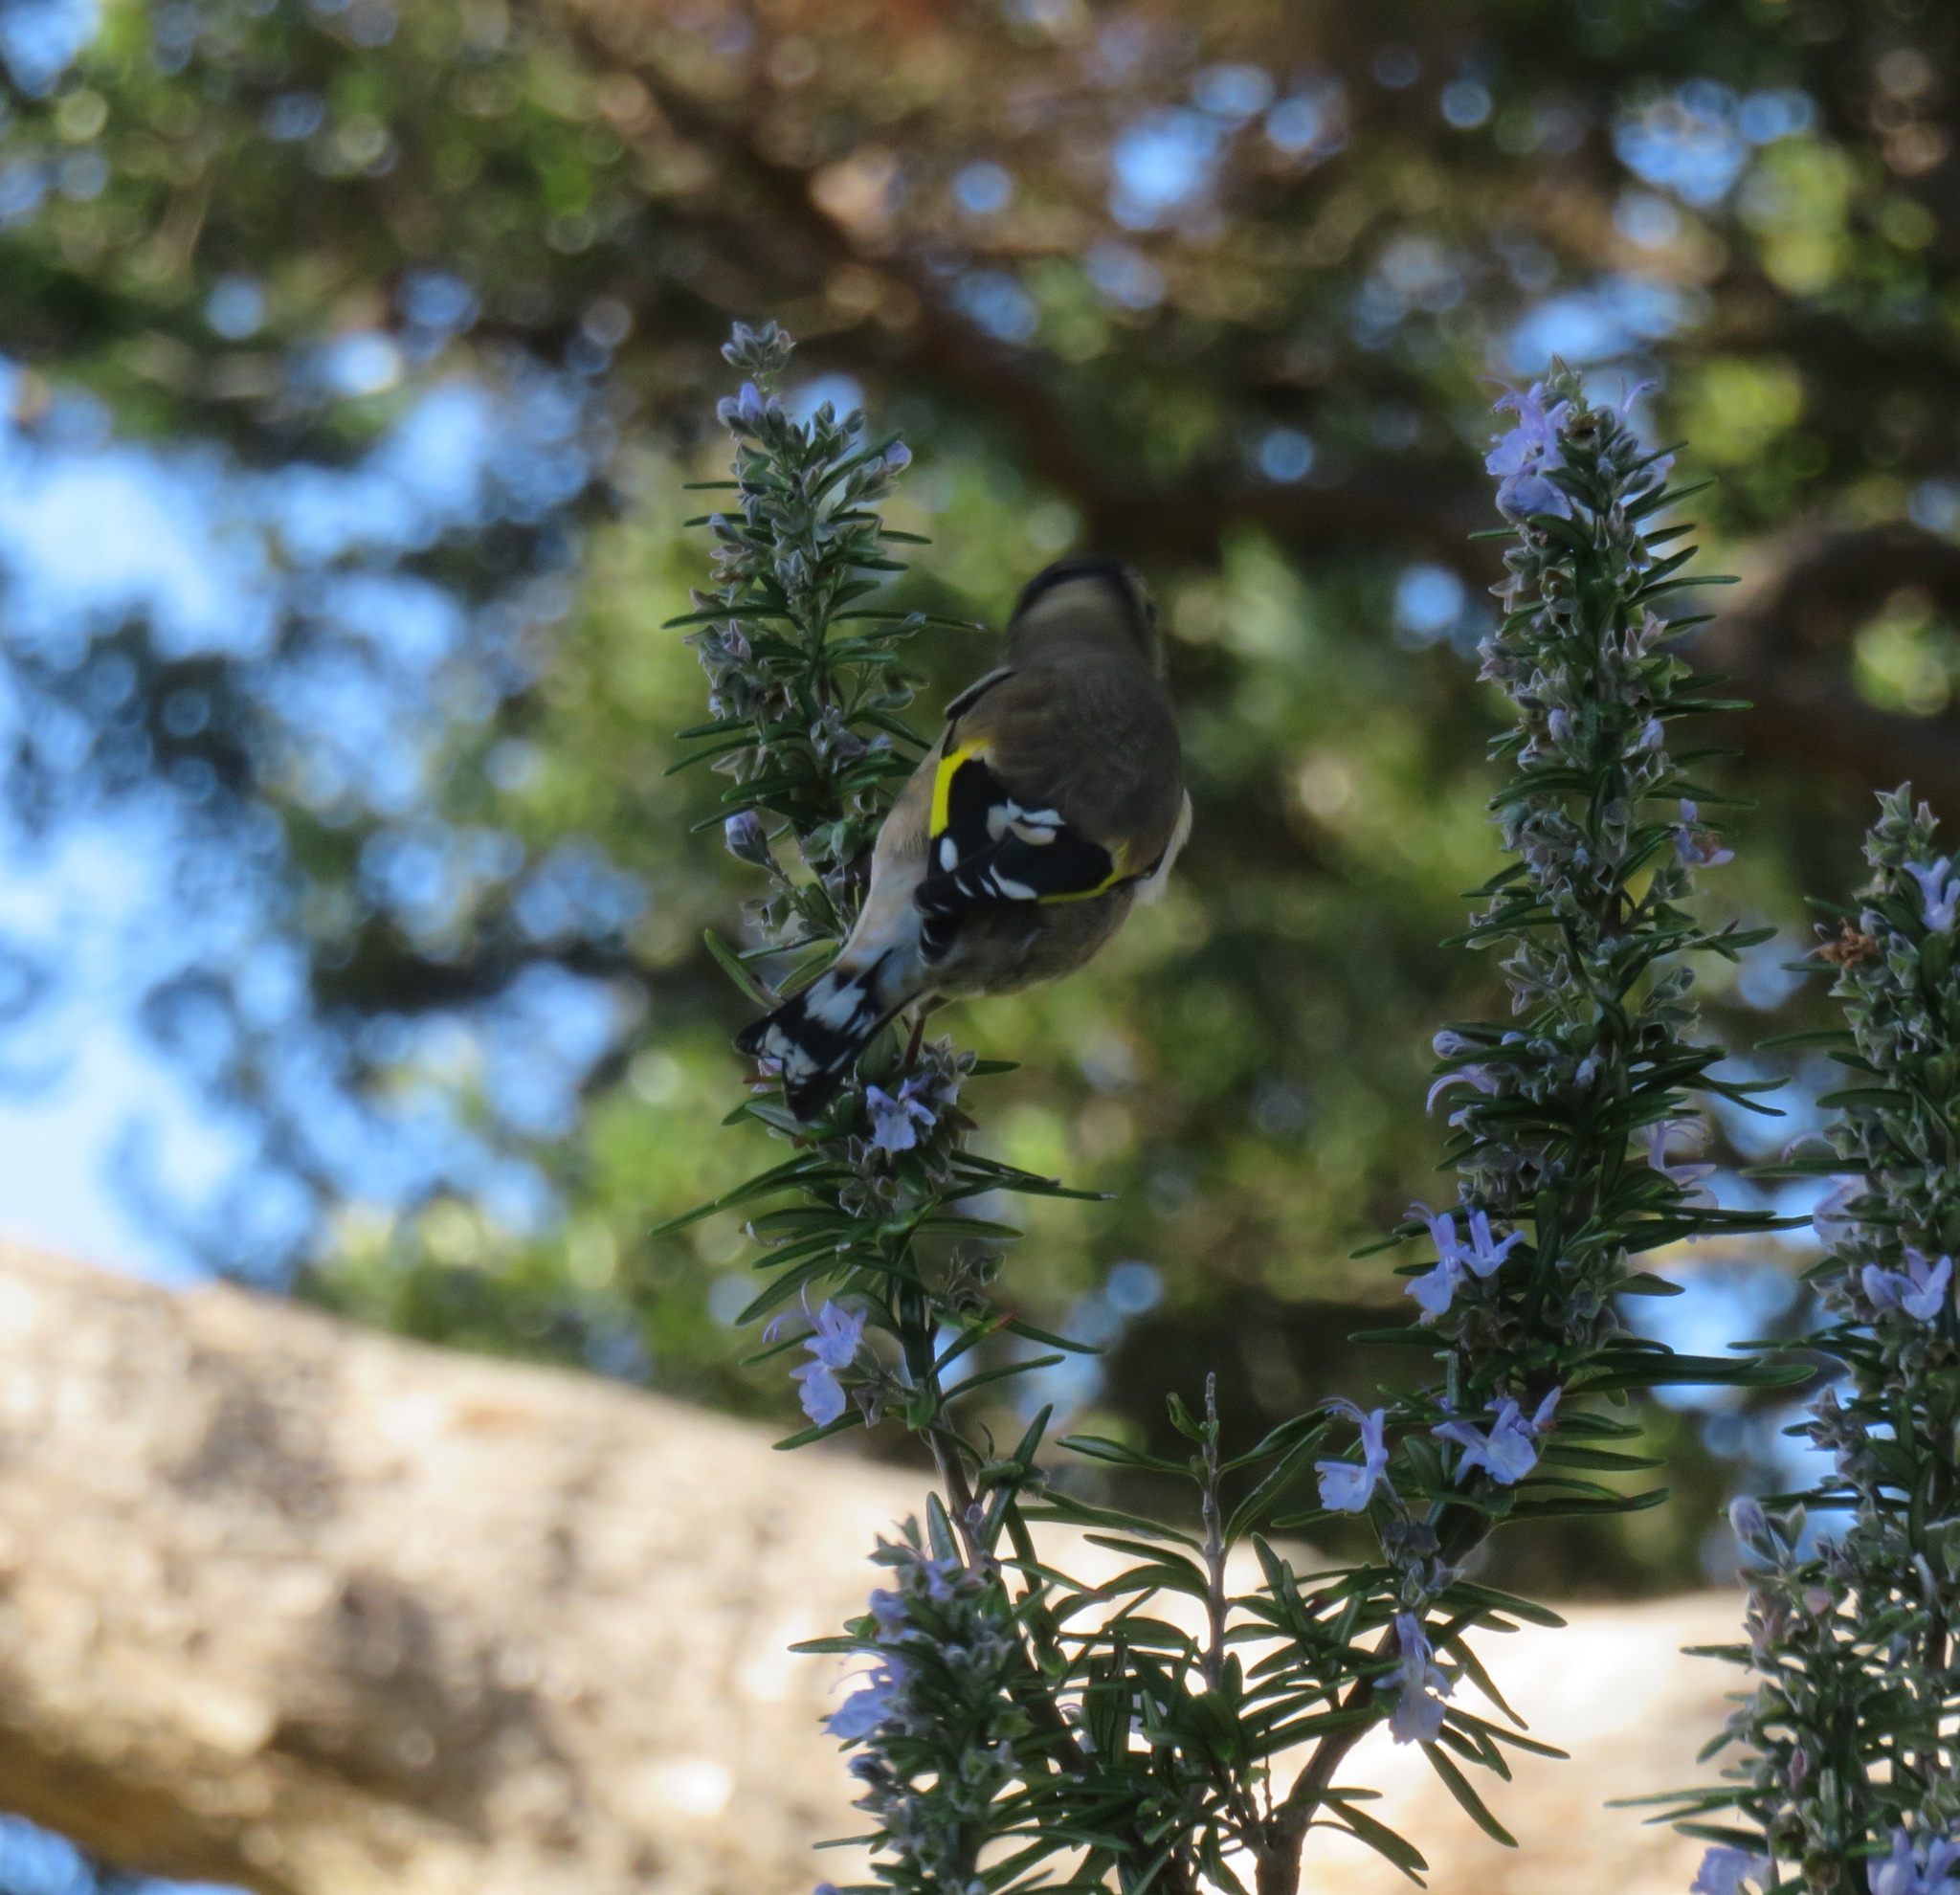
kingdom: Animalia
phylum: Chordata
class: Aves
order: Passeriformes
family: Fringillidae
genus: Carduelis
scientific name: Carduelis carduelis
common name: European goldfinch
